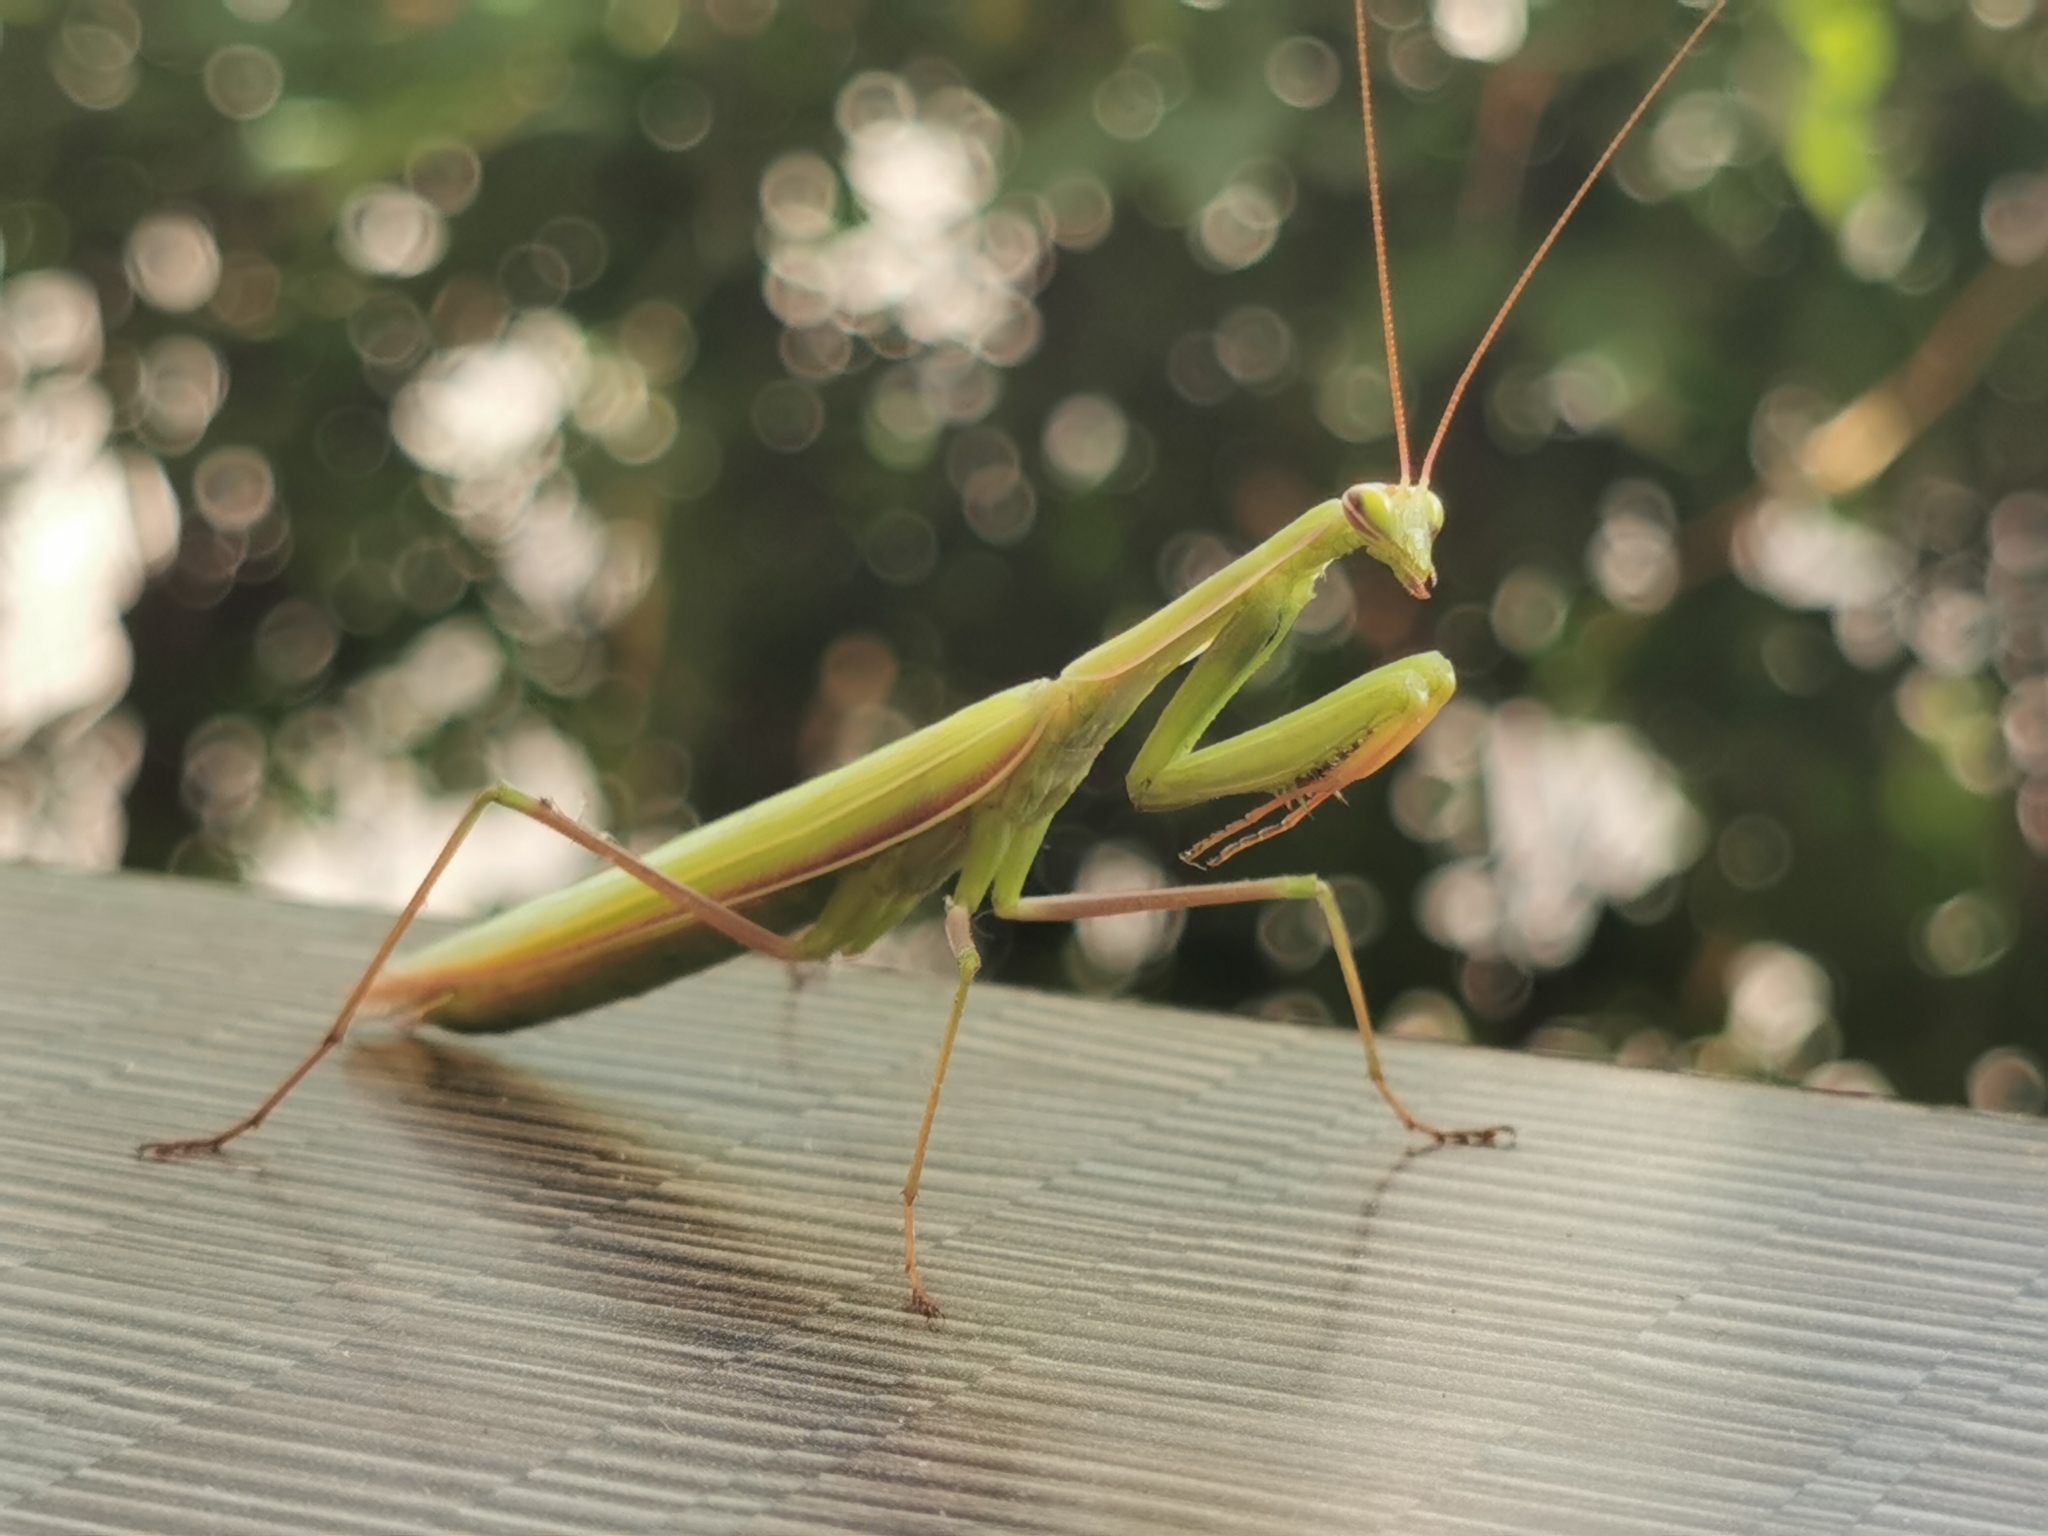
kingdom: Animalia
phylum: Arthropoda
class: Insecta
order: Mantodea
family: Mantidae
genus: Mantis
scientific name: Mantis religiosa
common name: Praying mantis
